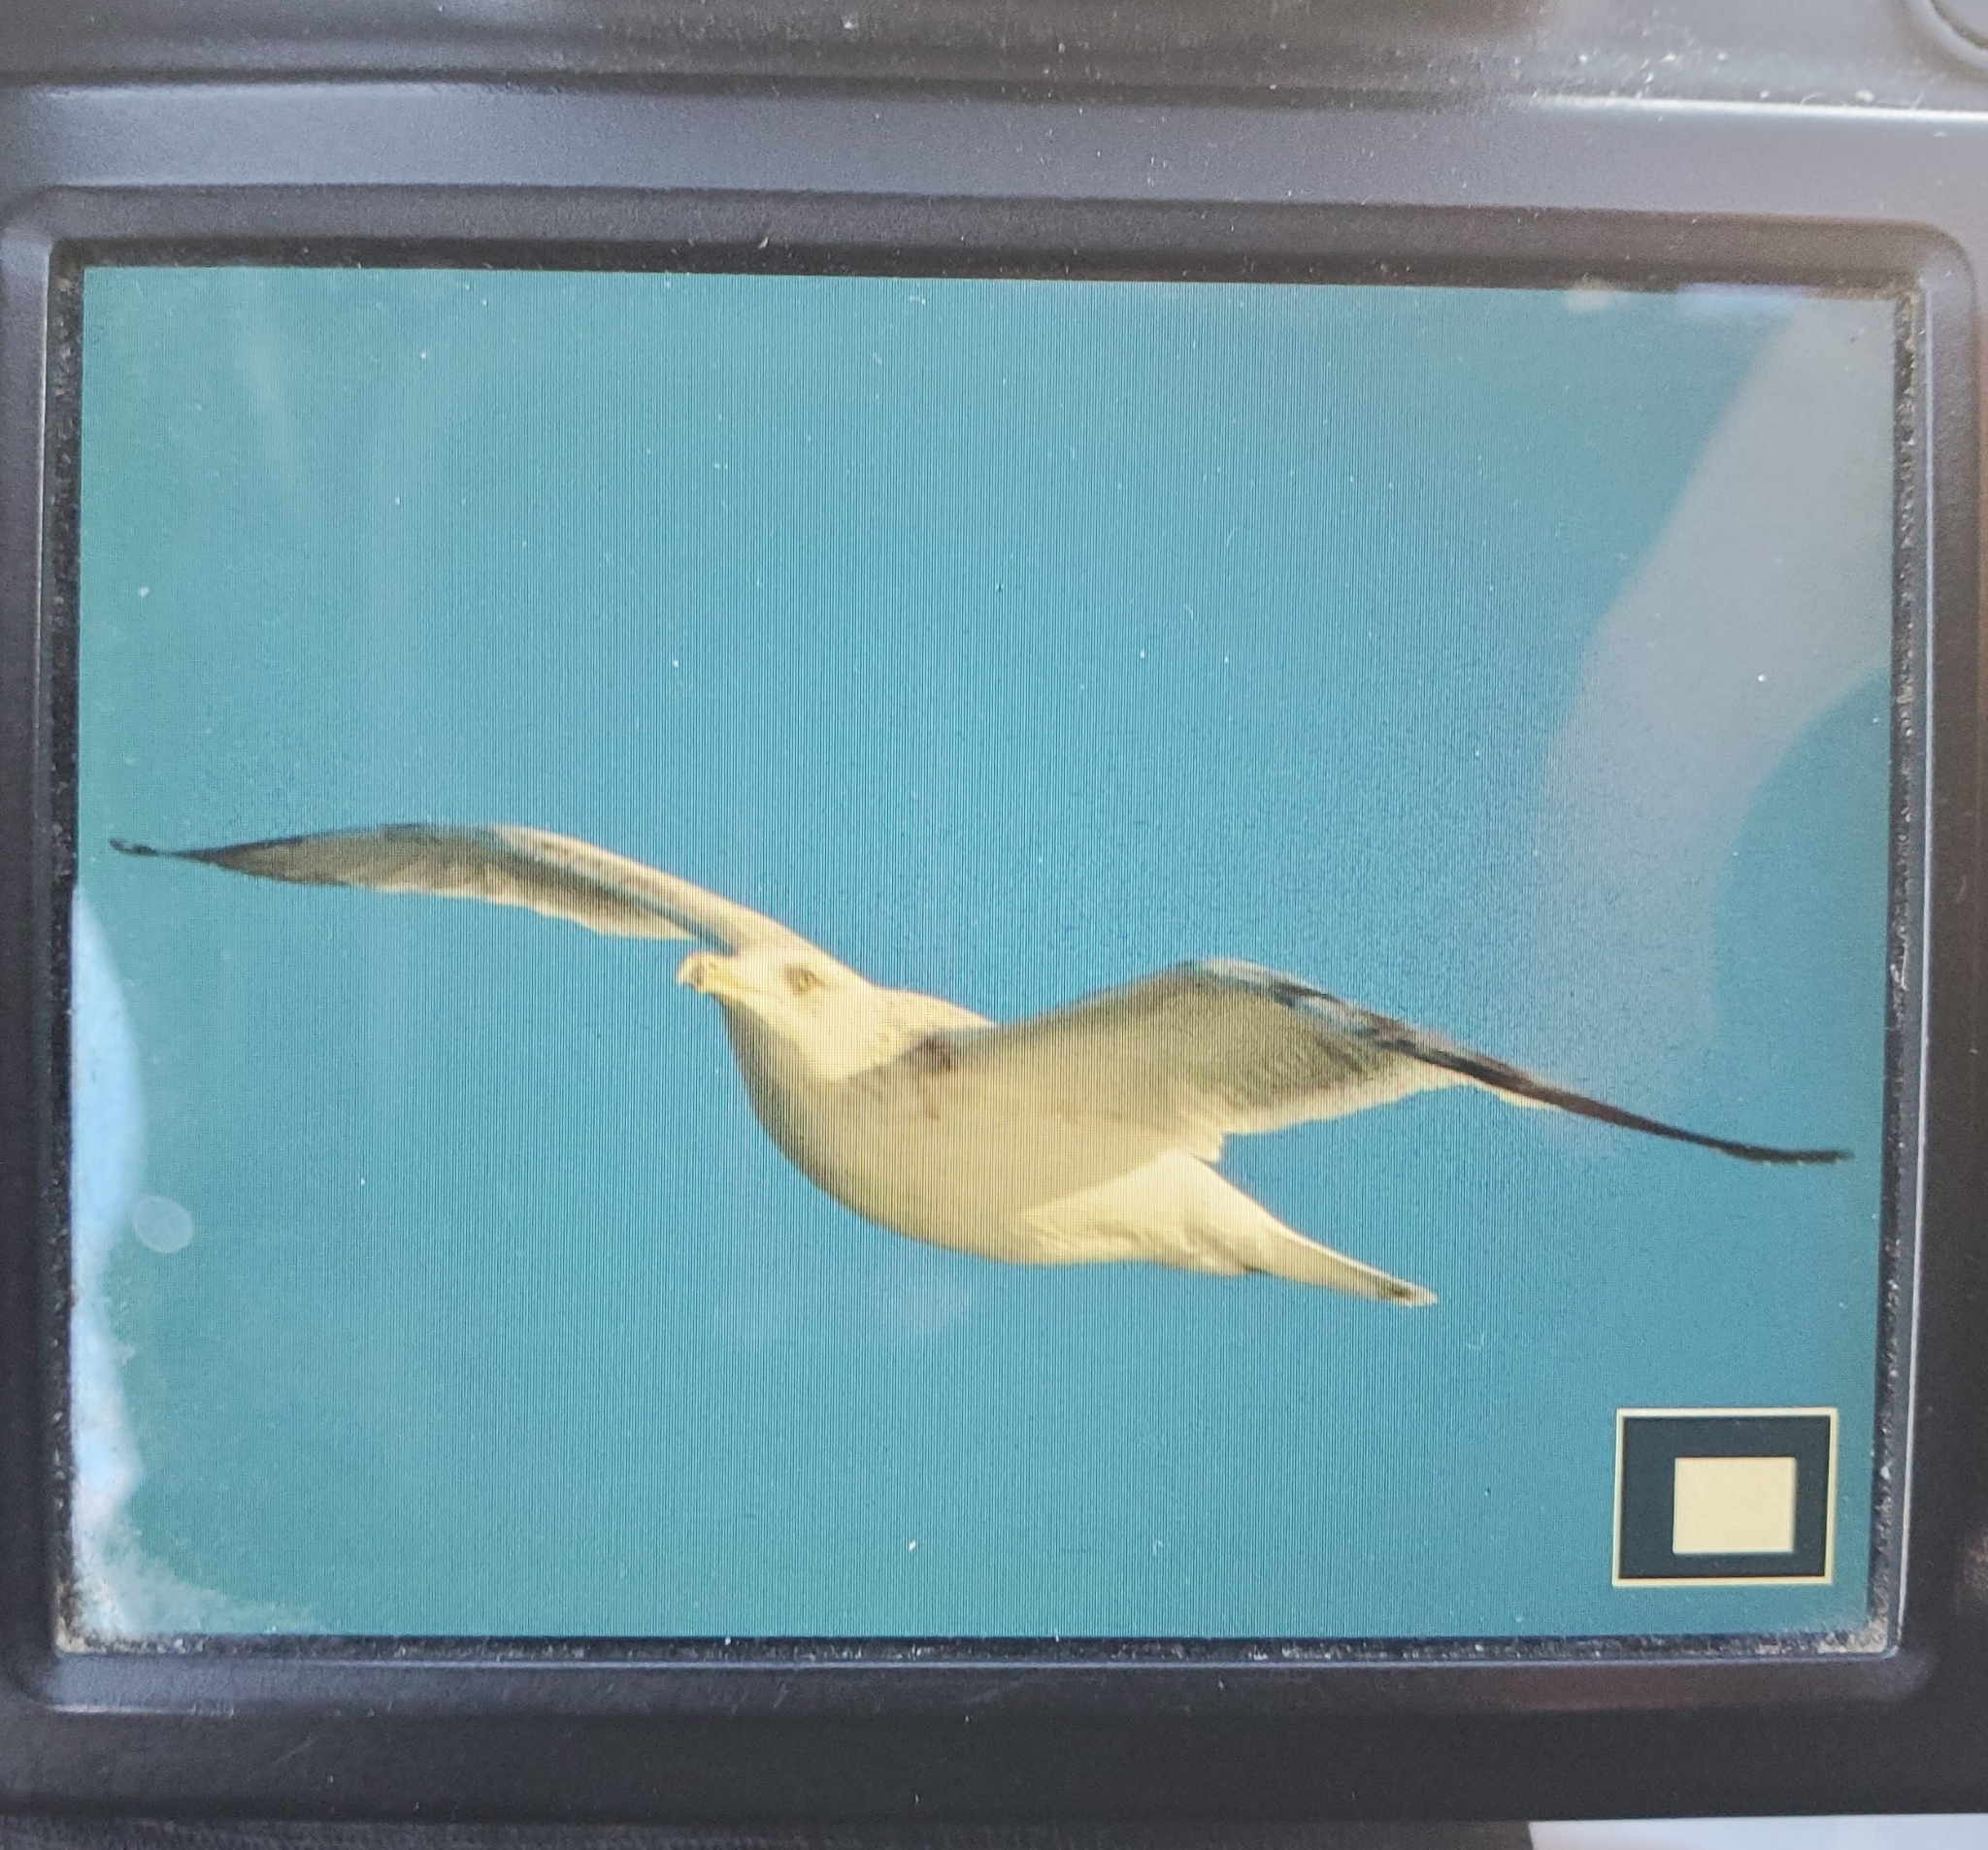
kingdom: Animalia
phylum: Chordata
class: Aves
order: Charadriiformes
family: Laridae
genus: Larus
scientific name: Larus argentatus
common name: Herring gull
